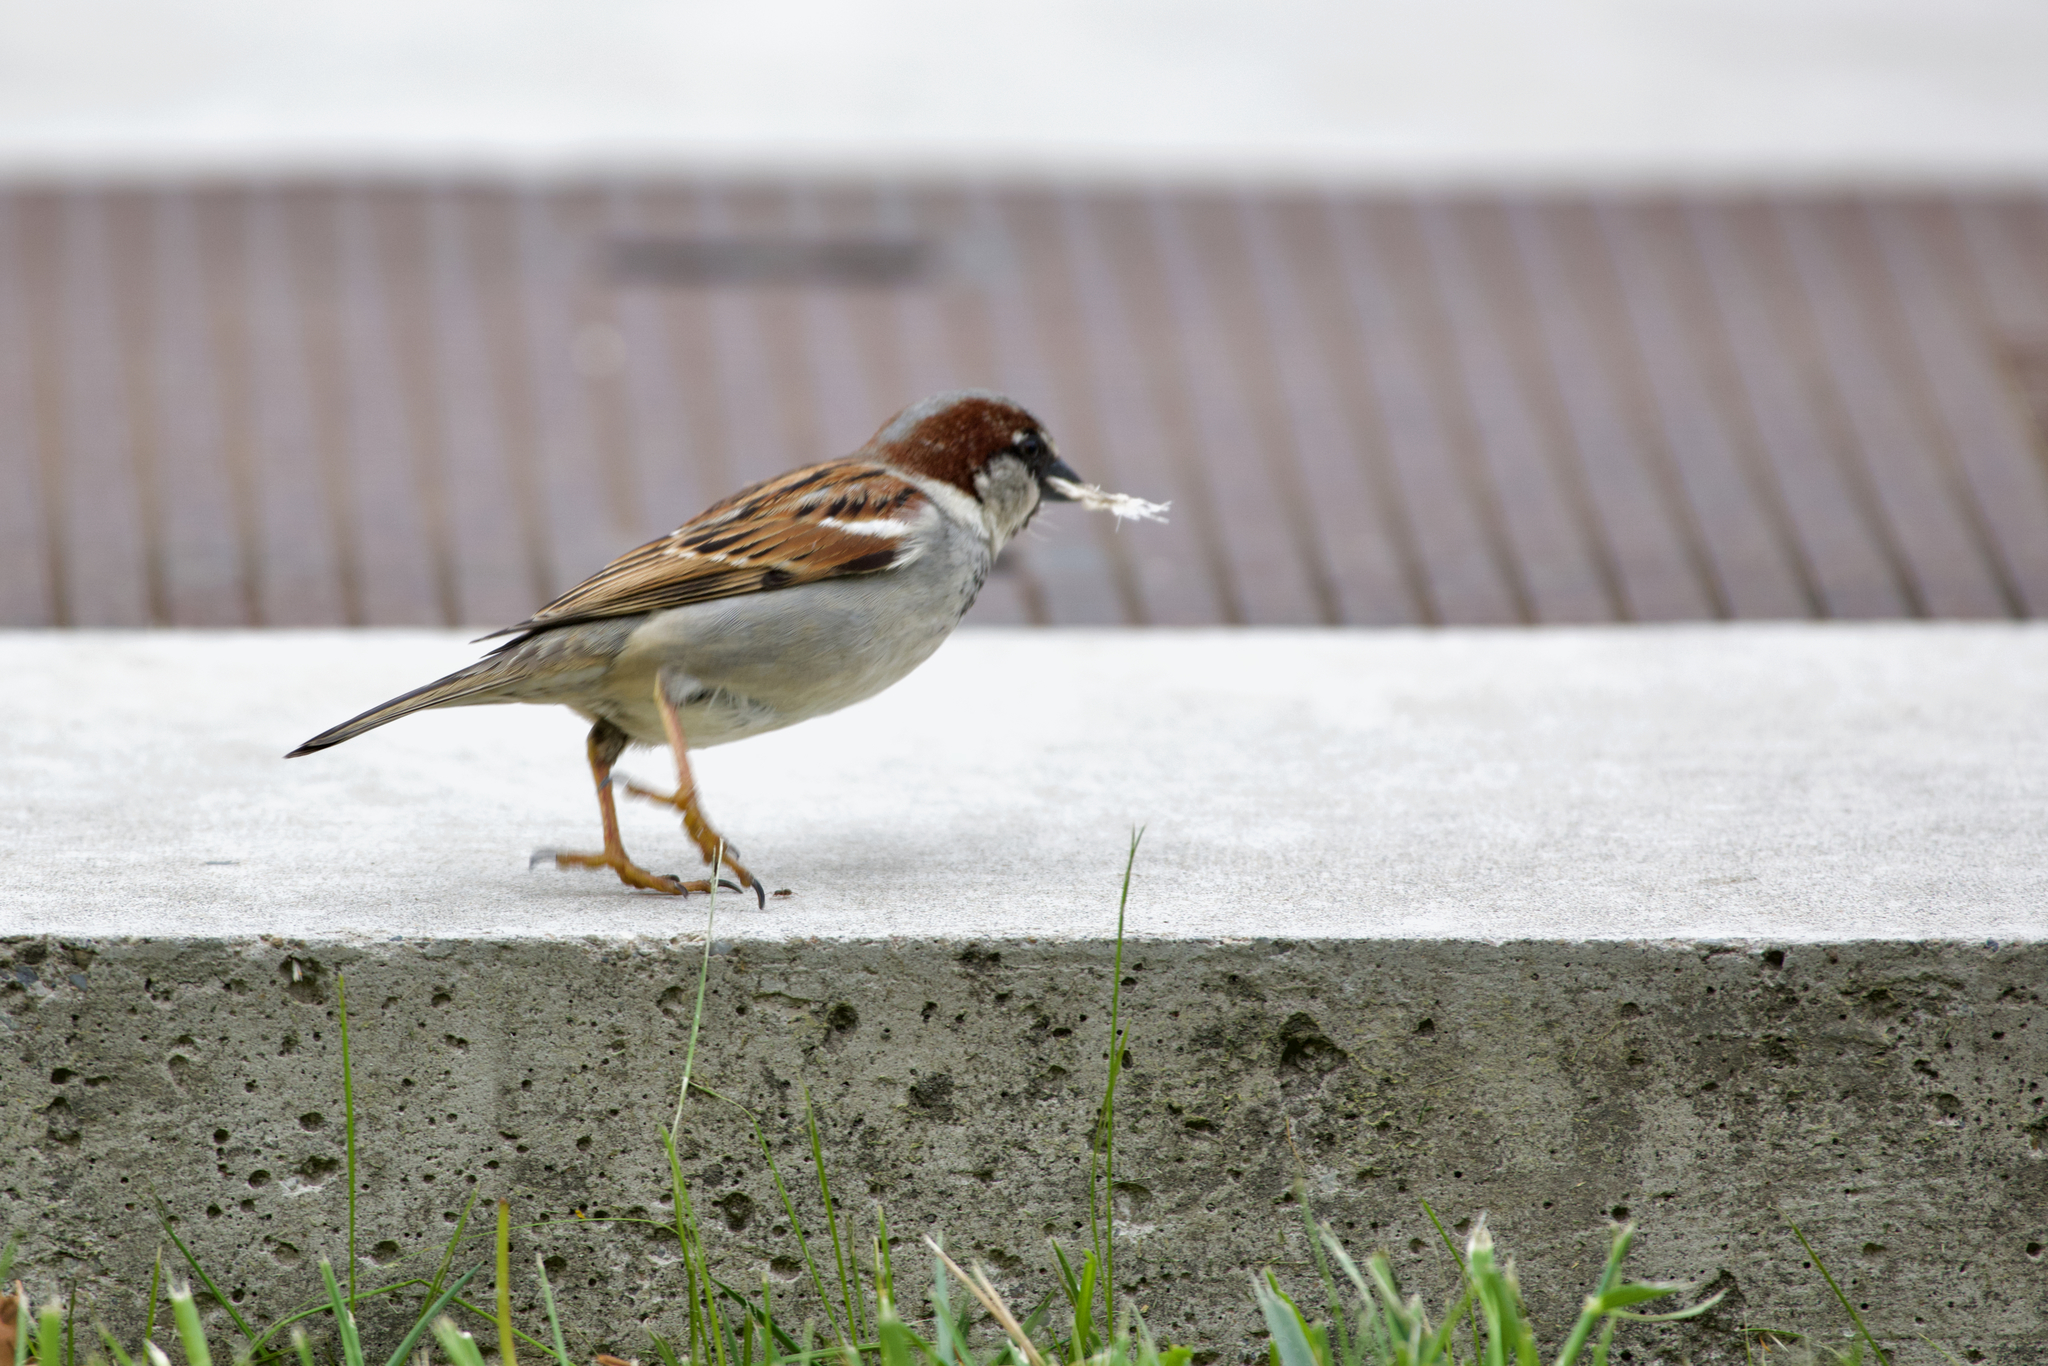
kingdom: Animalia
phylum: Chordata
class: Aves
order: Passeriformes
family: Passeridae
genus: Passer
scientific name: Passer domesticus
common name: House sparrow
